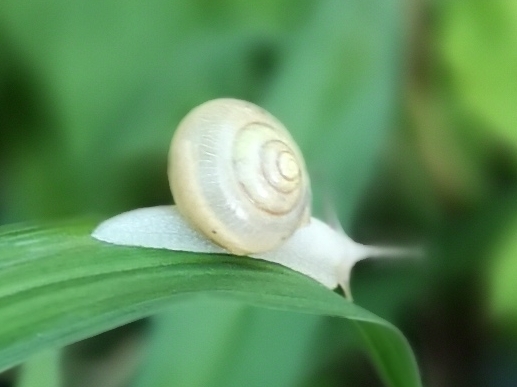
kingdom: Animalia
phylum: Mollusca
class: Gastropoda
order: Stylommatophora
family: Camaenidae
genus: Fruticicola
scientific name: Fruticicola fruticum
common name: Bush snail
